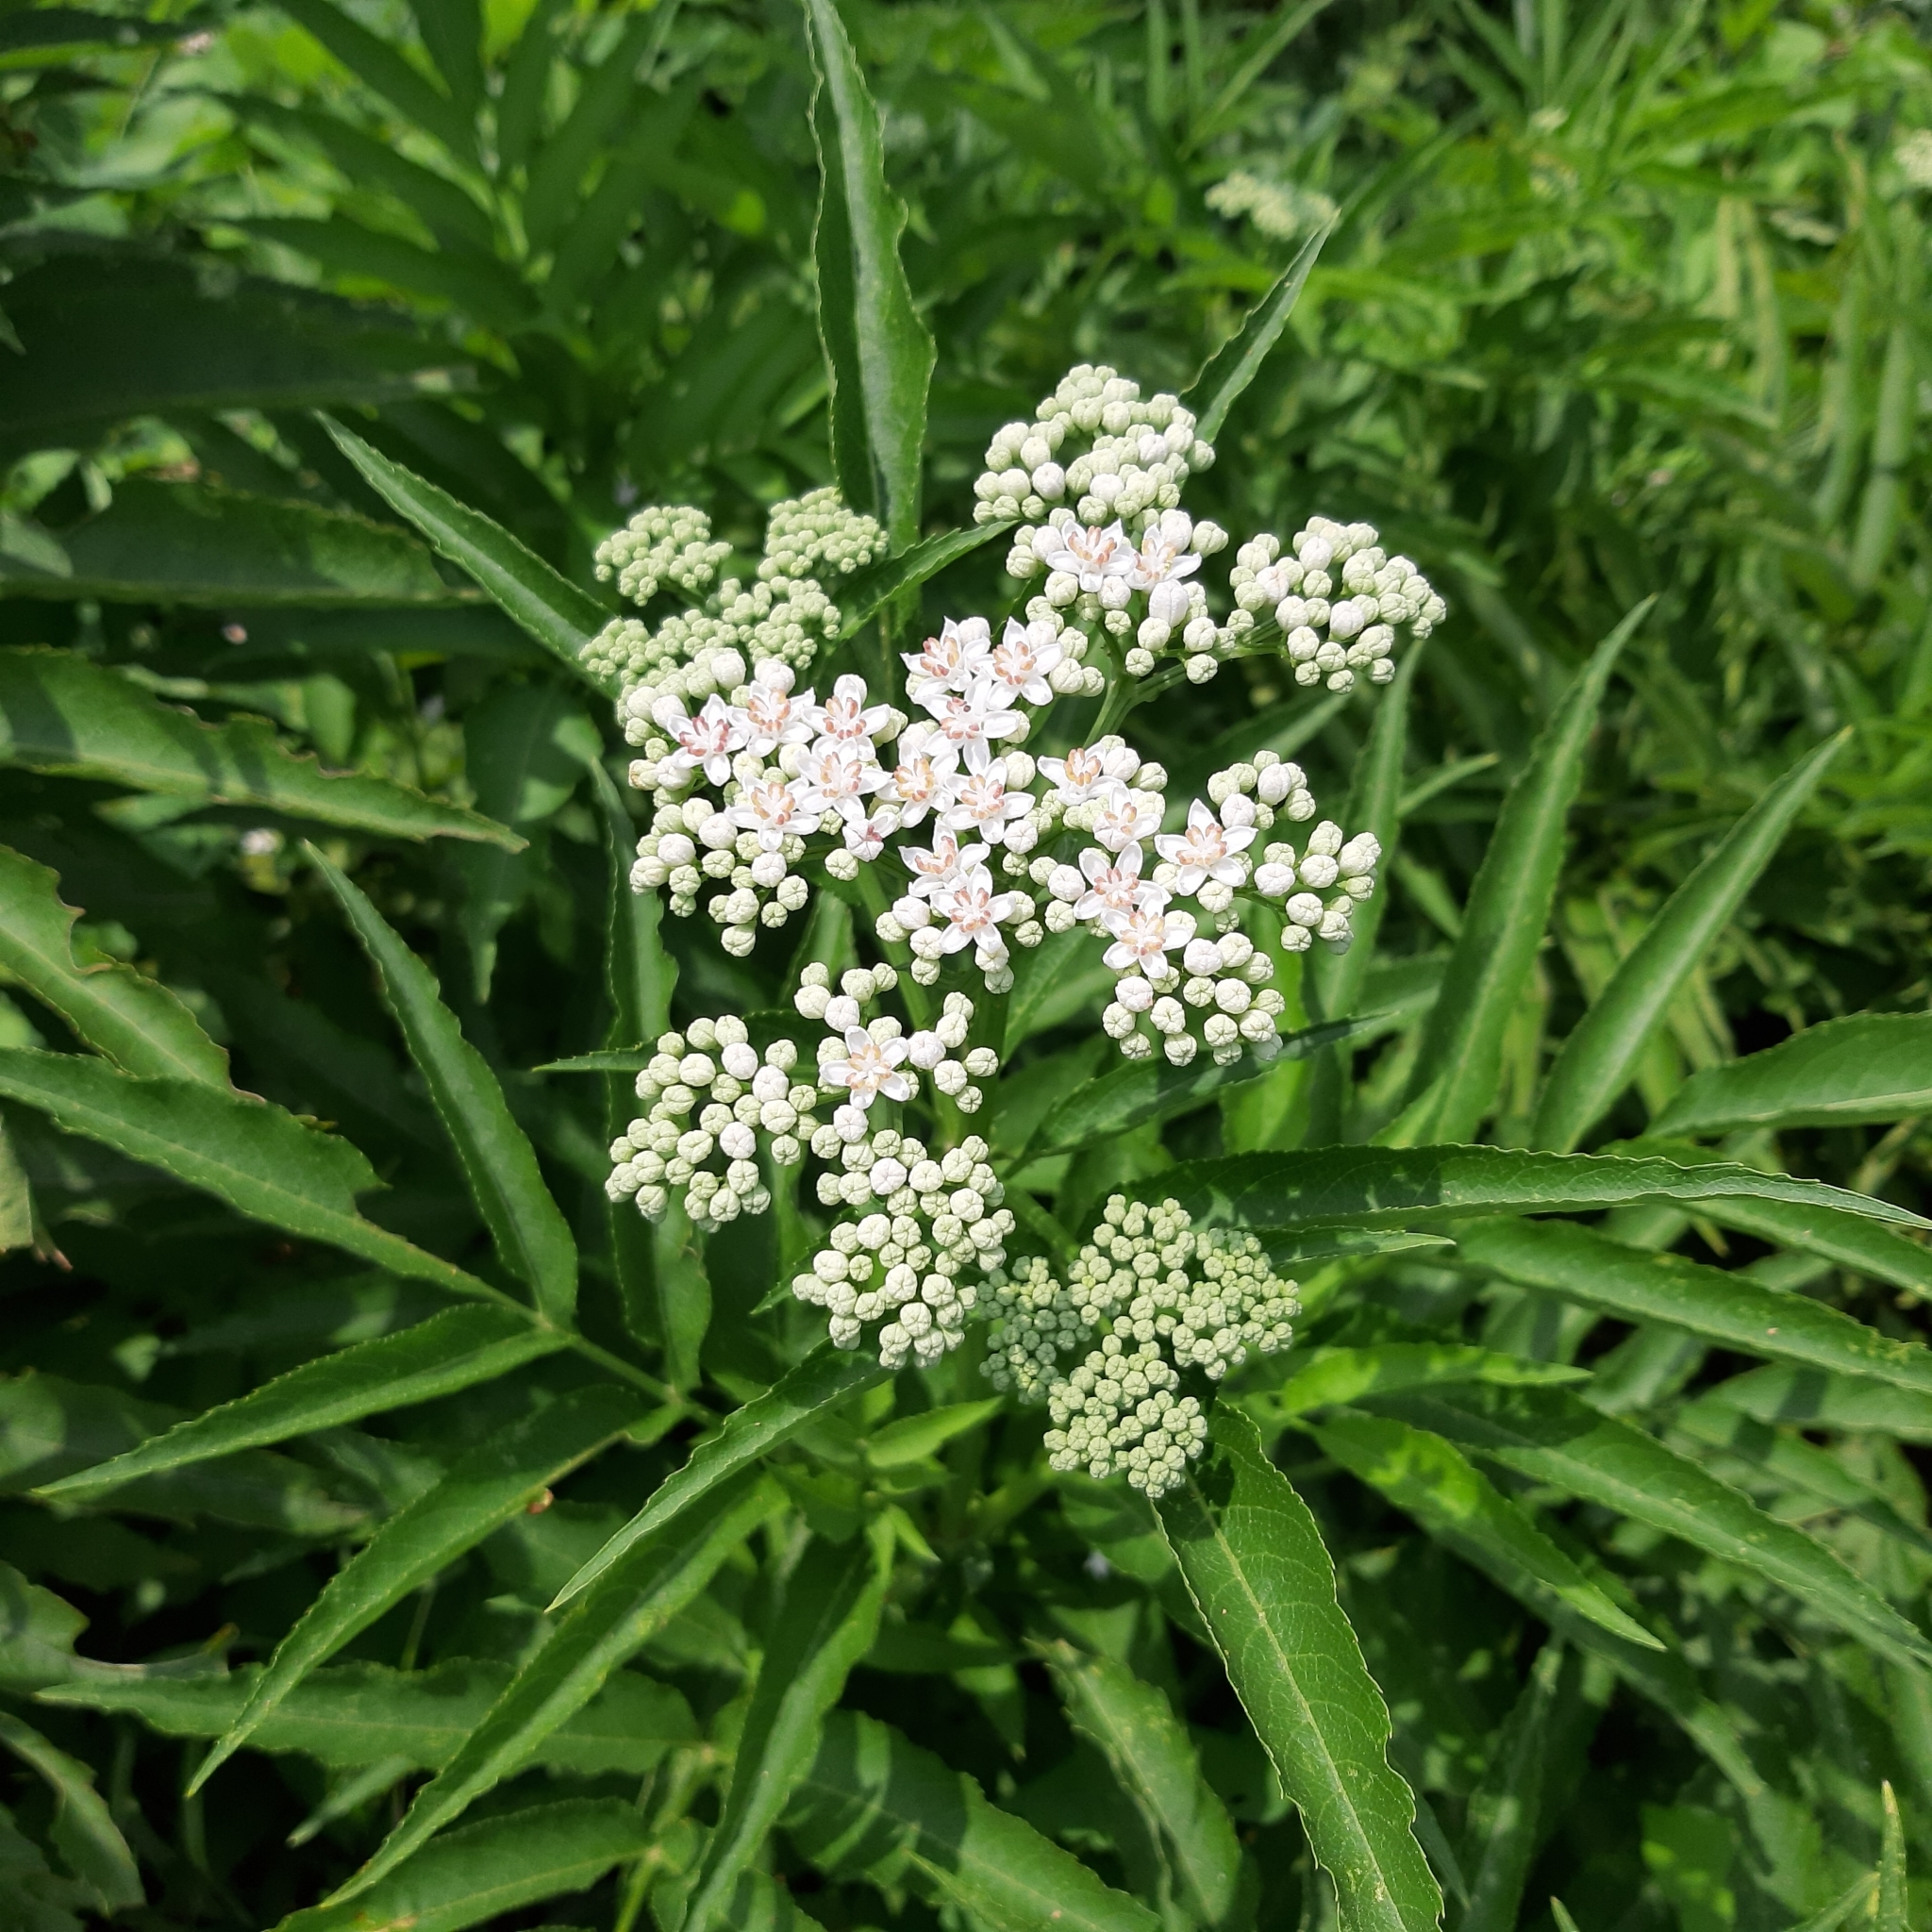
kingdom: Plantae
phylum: Tracheophyta
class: Magnoliopsida
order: Dipsacales
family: Viburnaceae
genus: Sambucus
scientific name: Sambucus ebulus
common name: Dwarf elder
